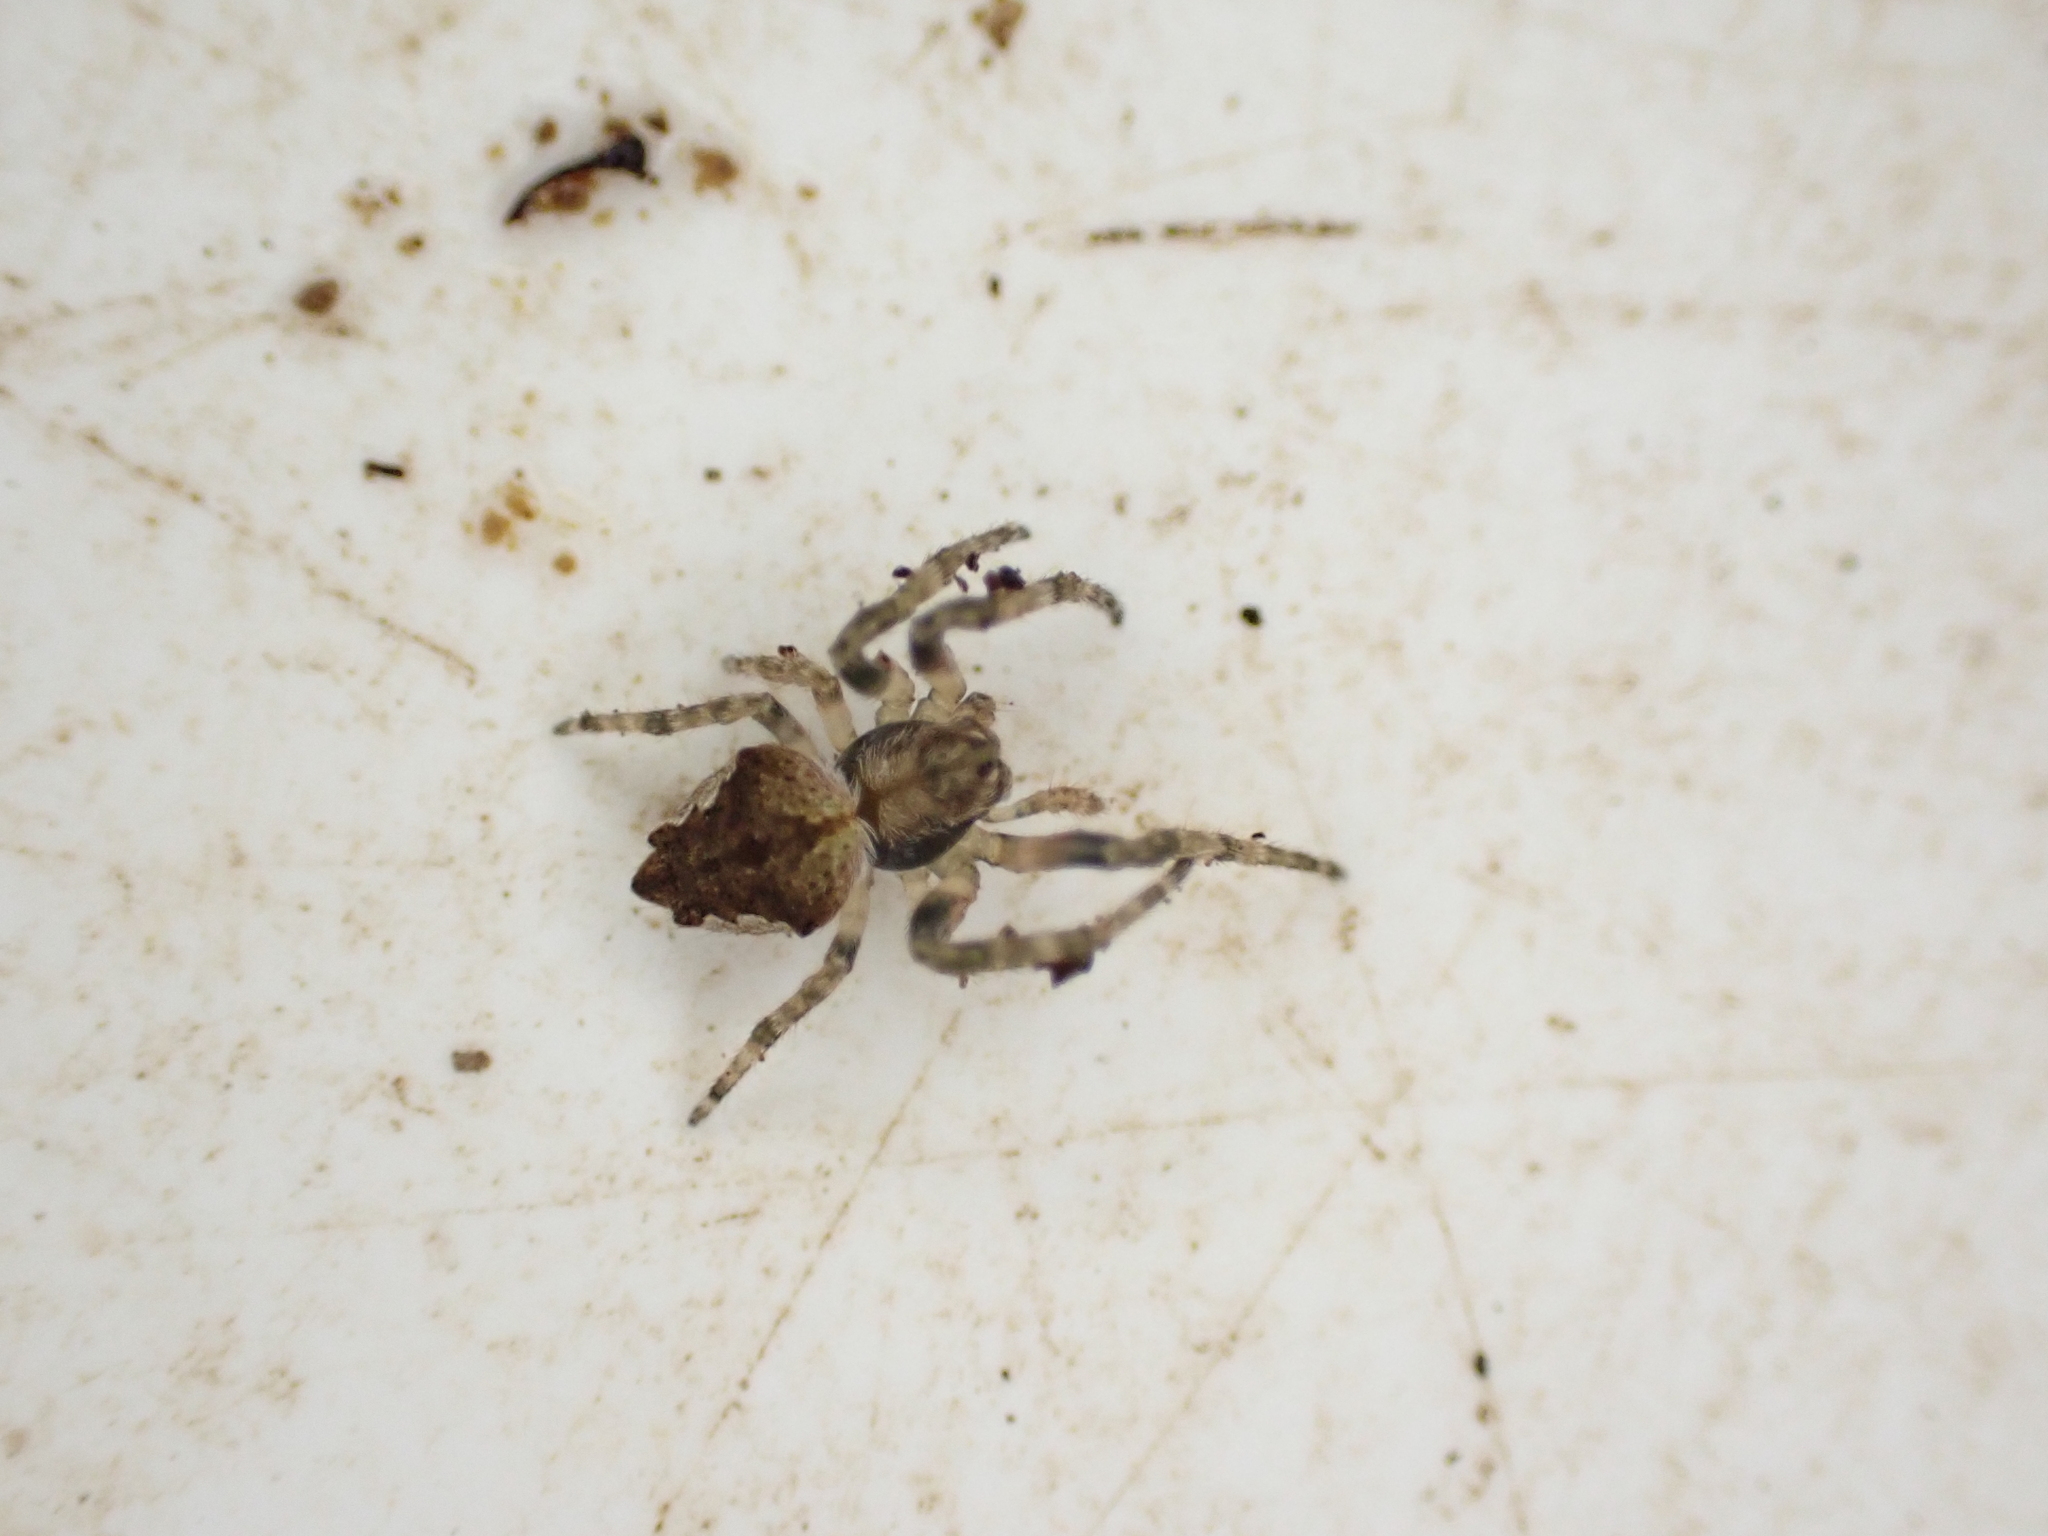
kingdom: Animalia
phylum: Arthropoda
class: Arachnida
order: Araneae
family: Araneidae
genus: Eriophora
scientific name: Eriophora pustulosa
